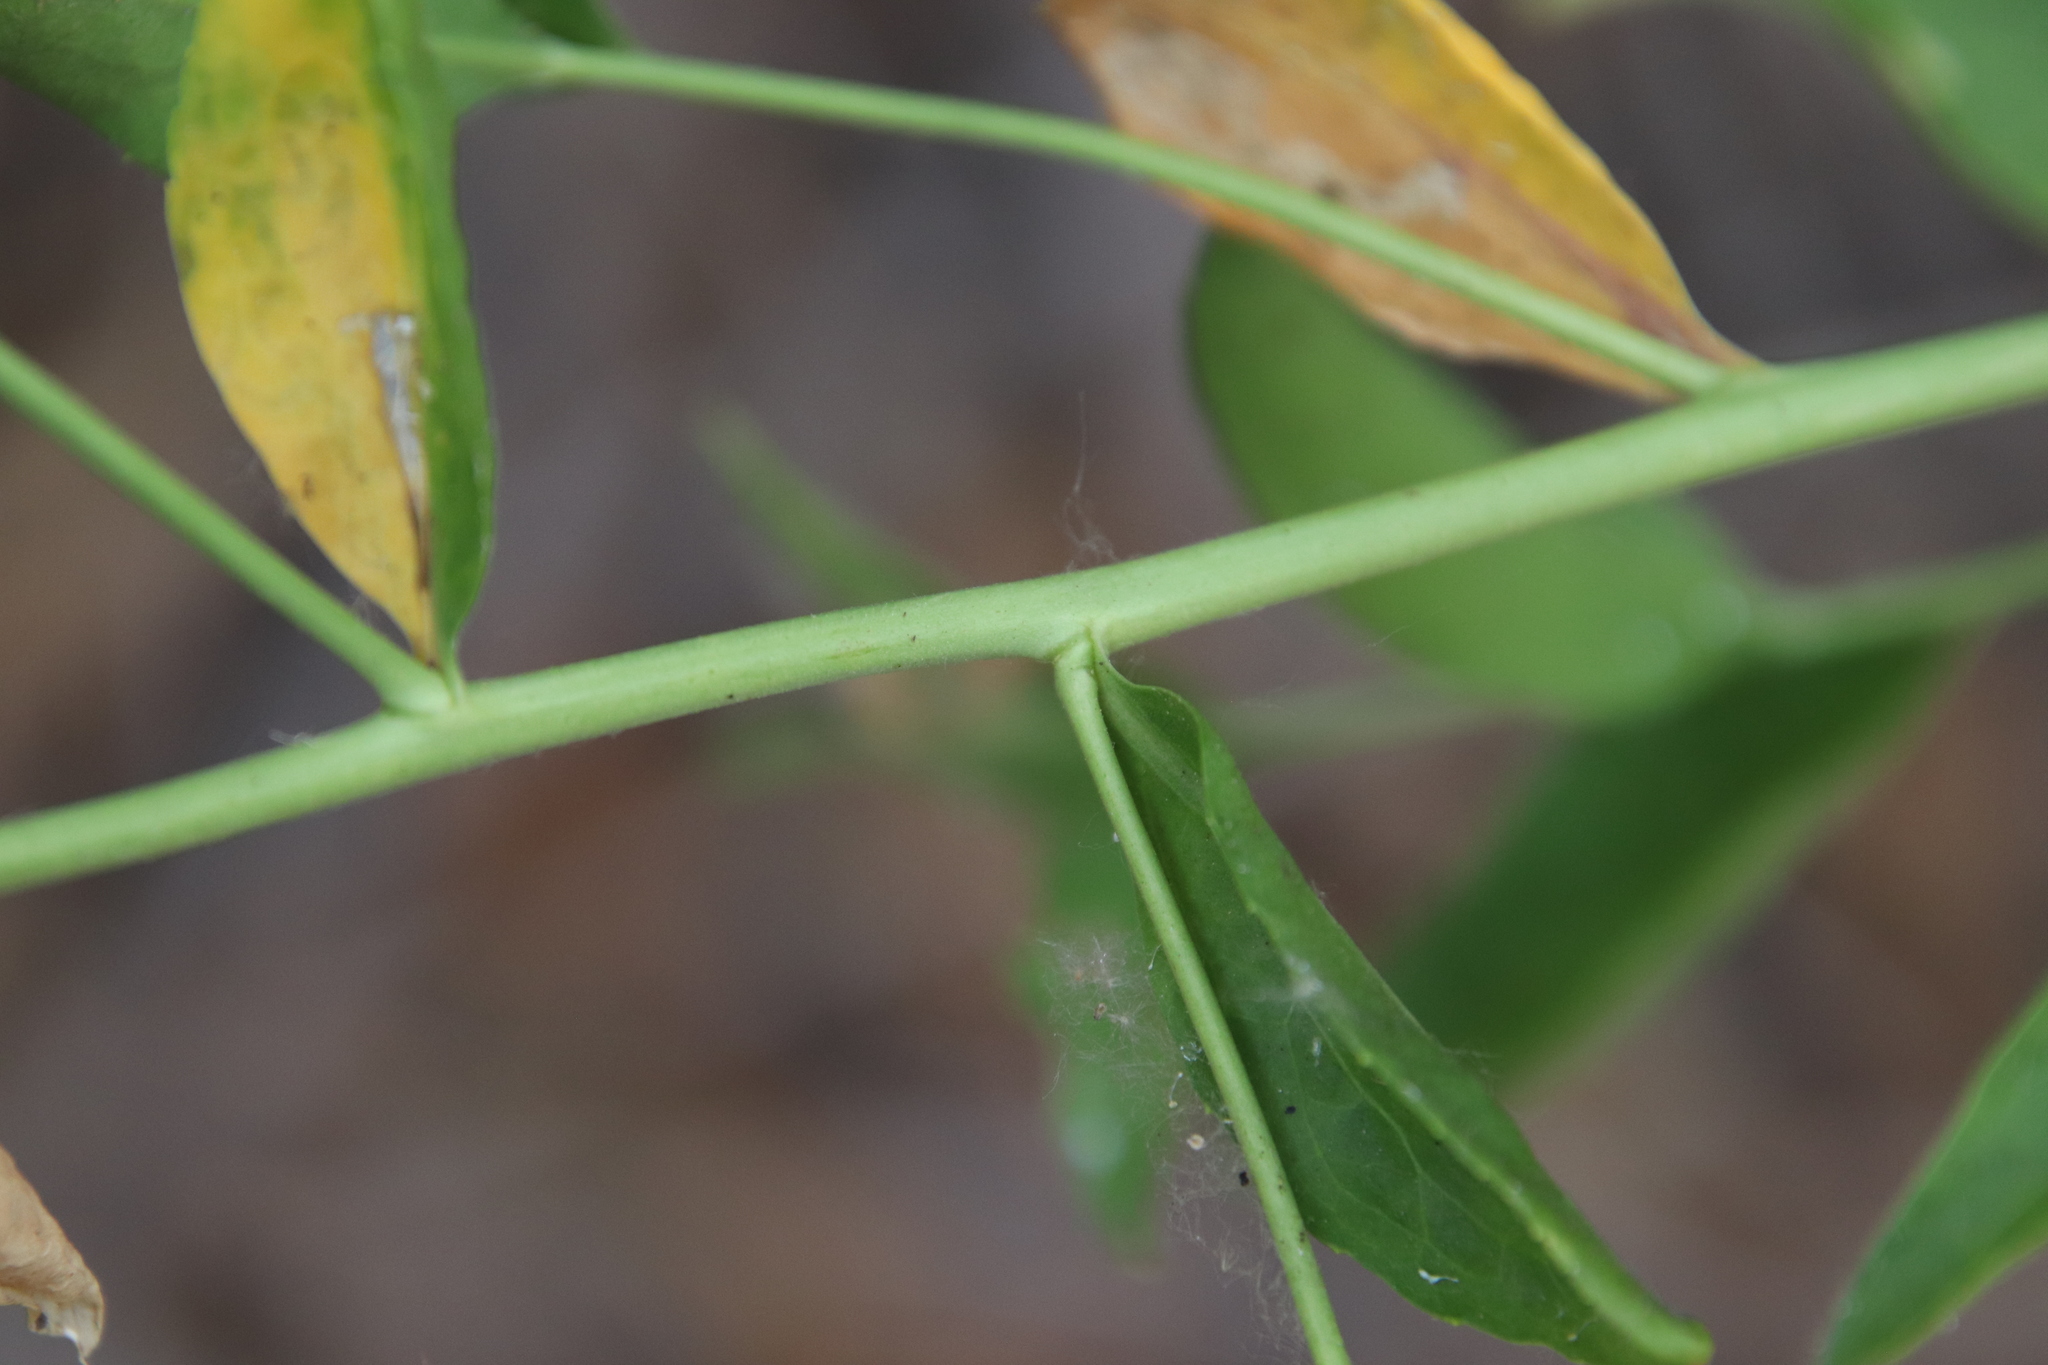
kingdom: Plantae
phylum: Tracheophyta
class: Magnoliopsida
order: Brassicales
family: Brassicaceae
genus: Lepidium
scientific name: Lepidium latifolium
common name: Dittander
